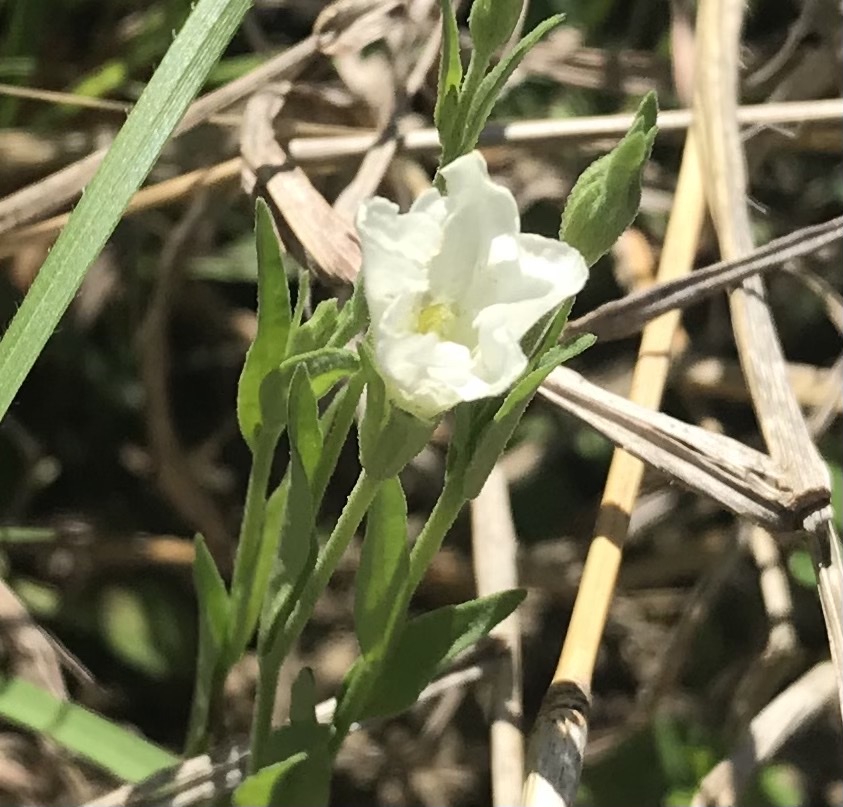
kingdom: Plantae
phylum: Tracheophyta
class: Magnoliopsida
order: Solanales
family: Solanaceae
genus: Salpiglossis
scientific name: Salpiglossis erecta
